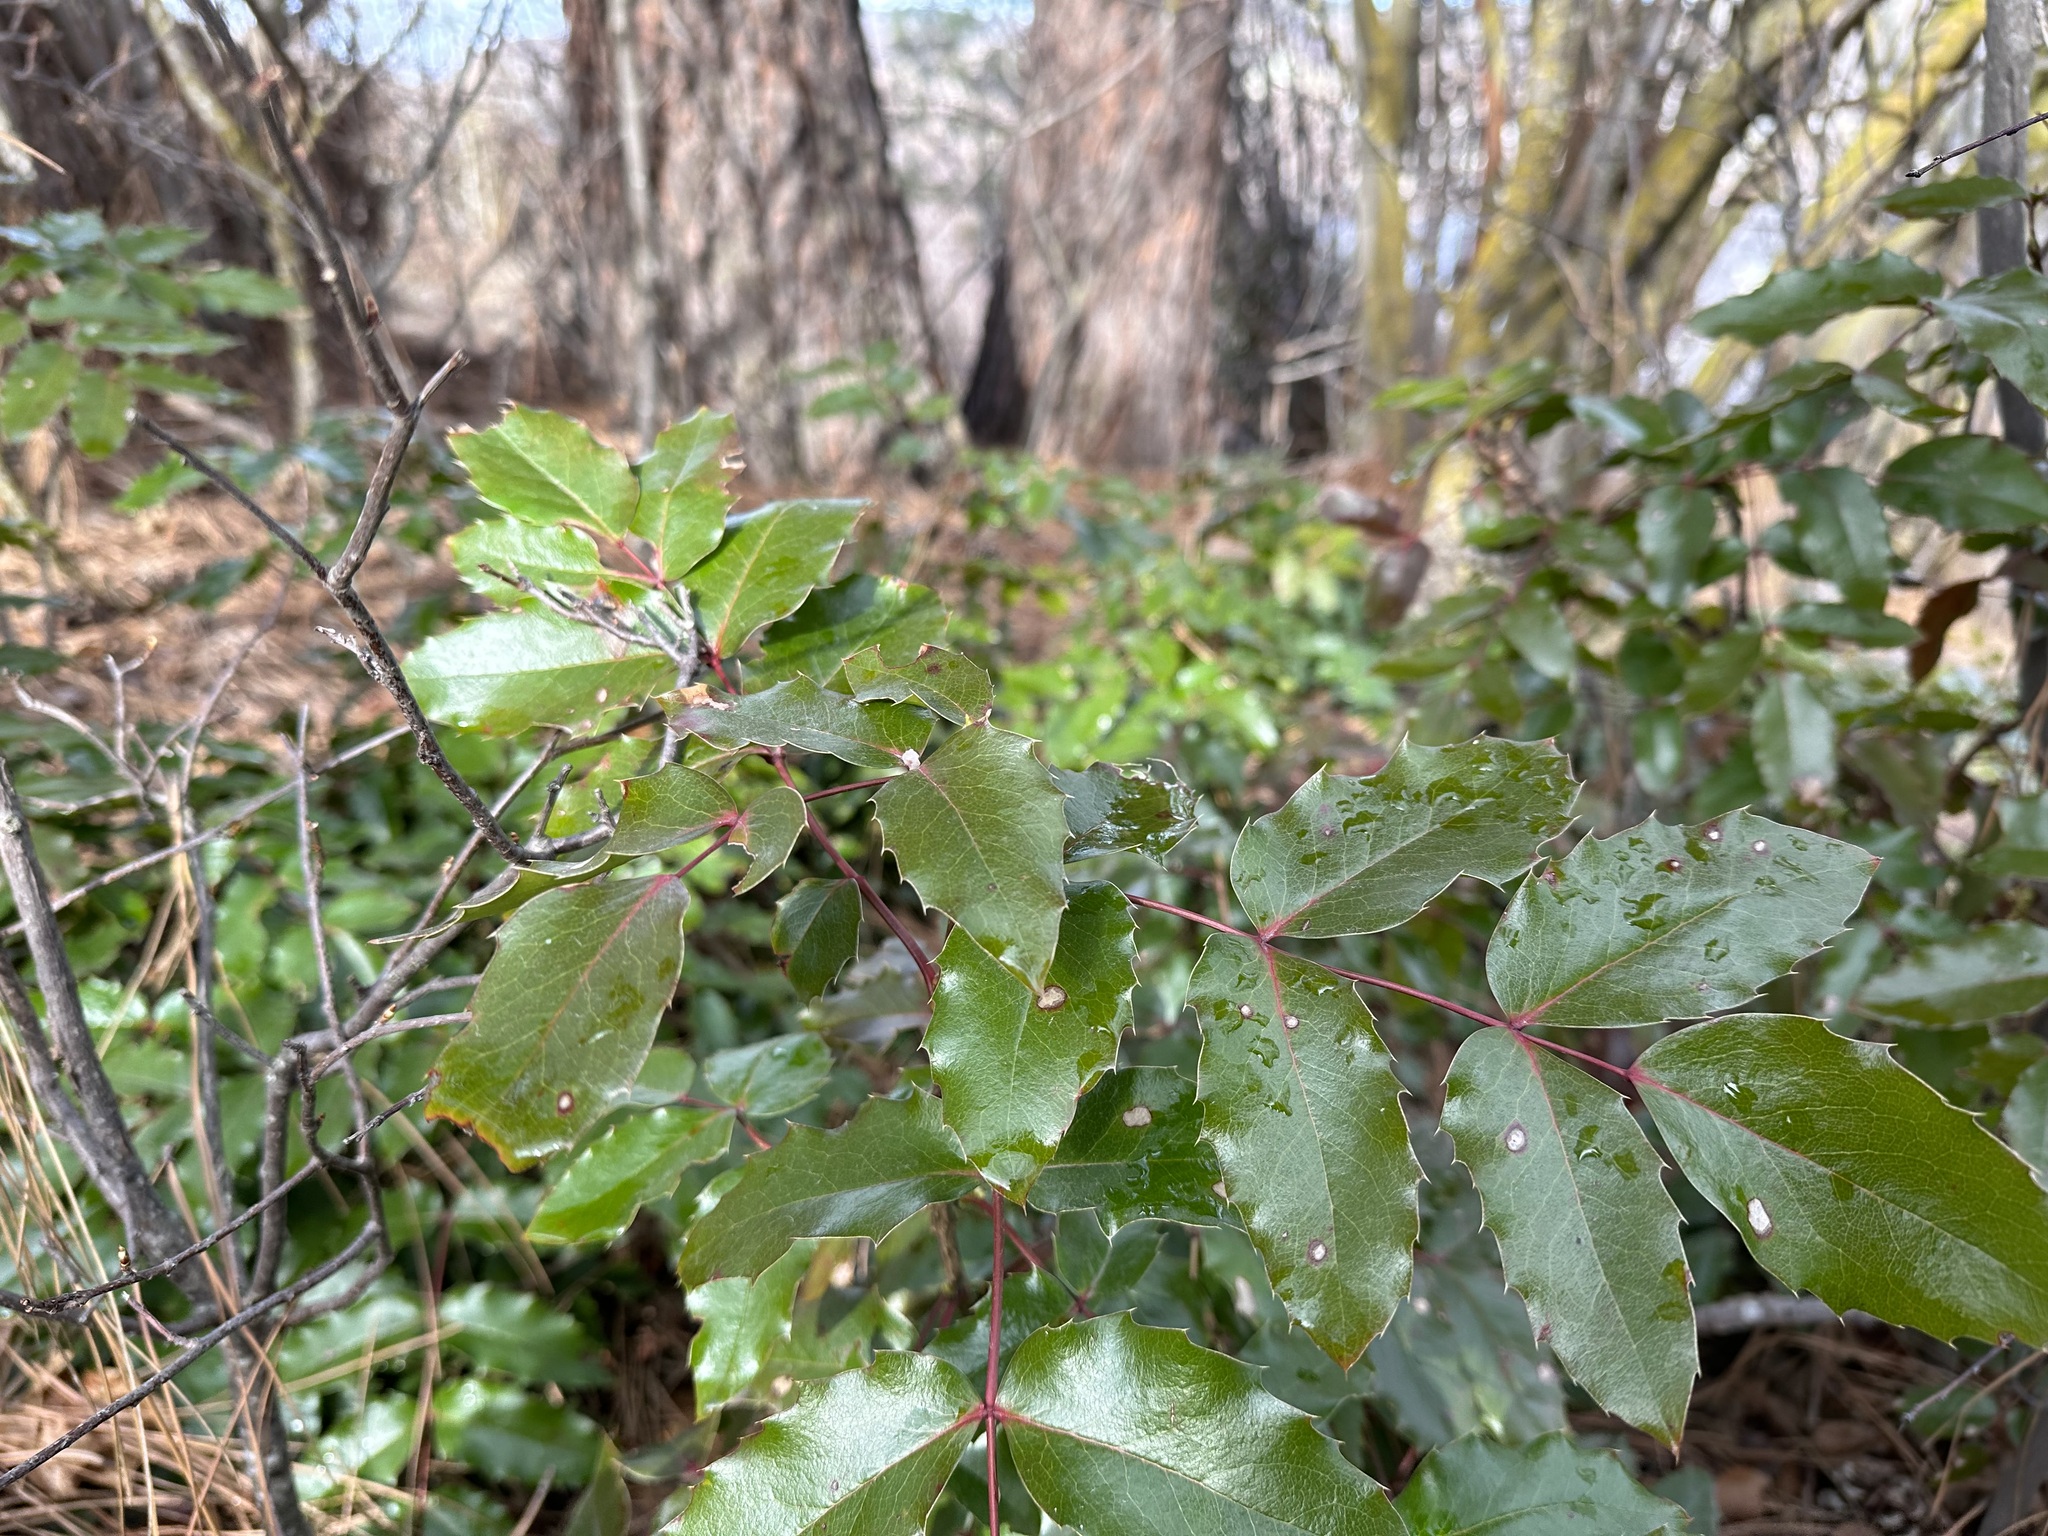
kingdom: Plantae
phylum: Tracheophyta
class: Magnoliopsida
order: Ranunculales
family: Berberidaceae
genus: Mahonia
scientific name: Mahonia aquifolium
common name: Oregon-grape
